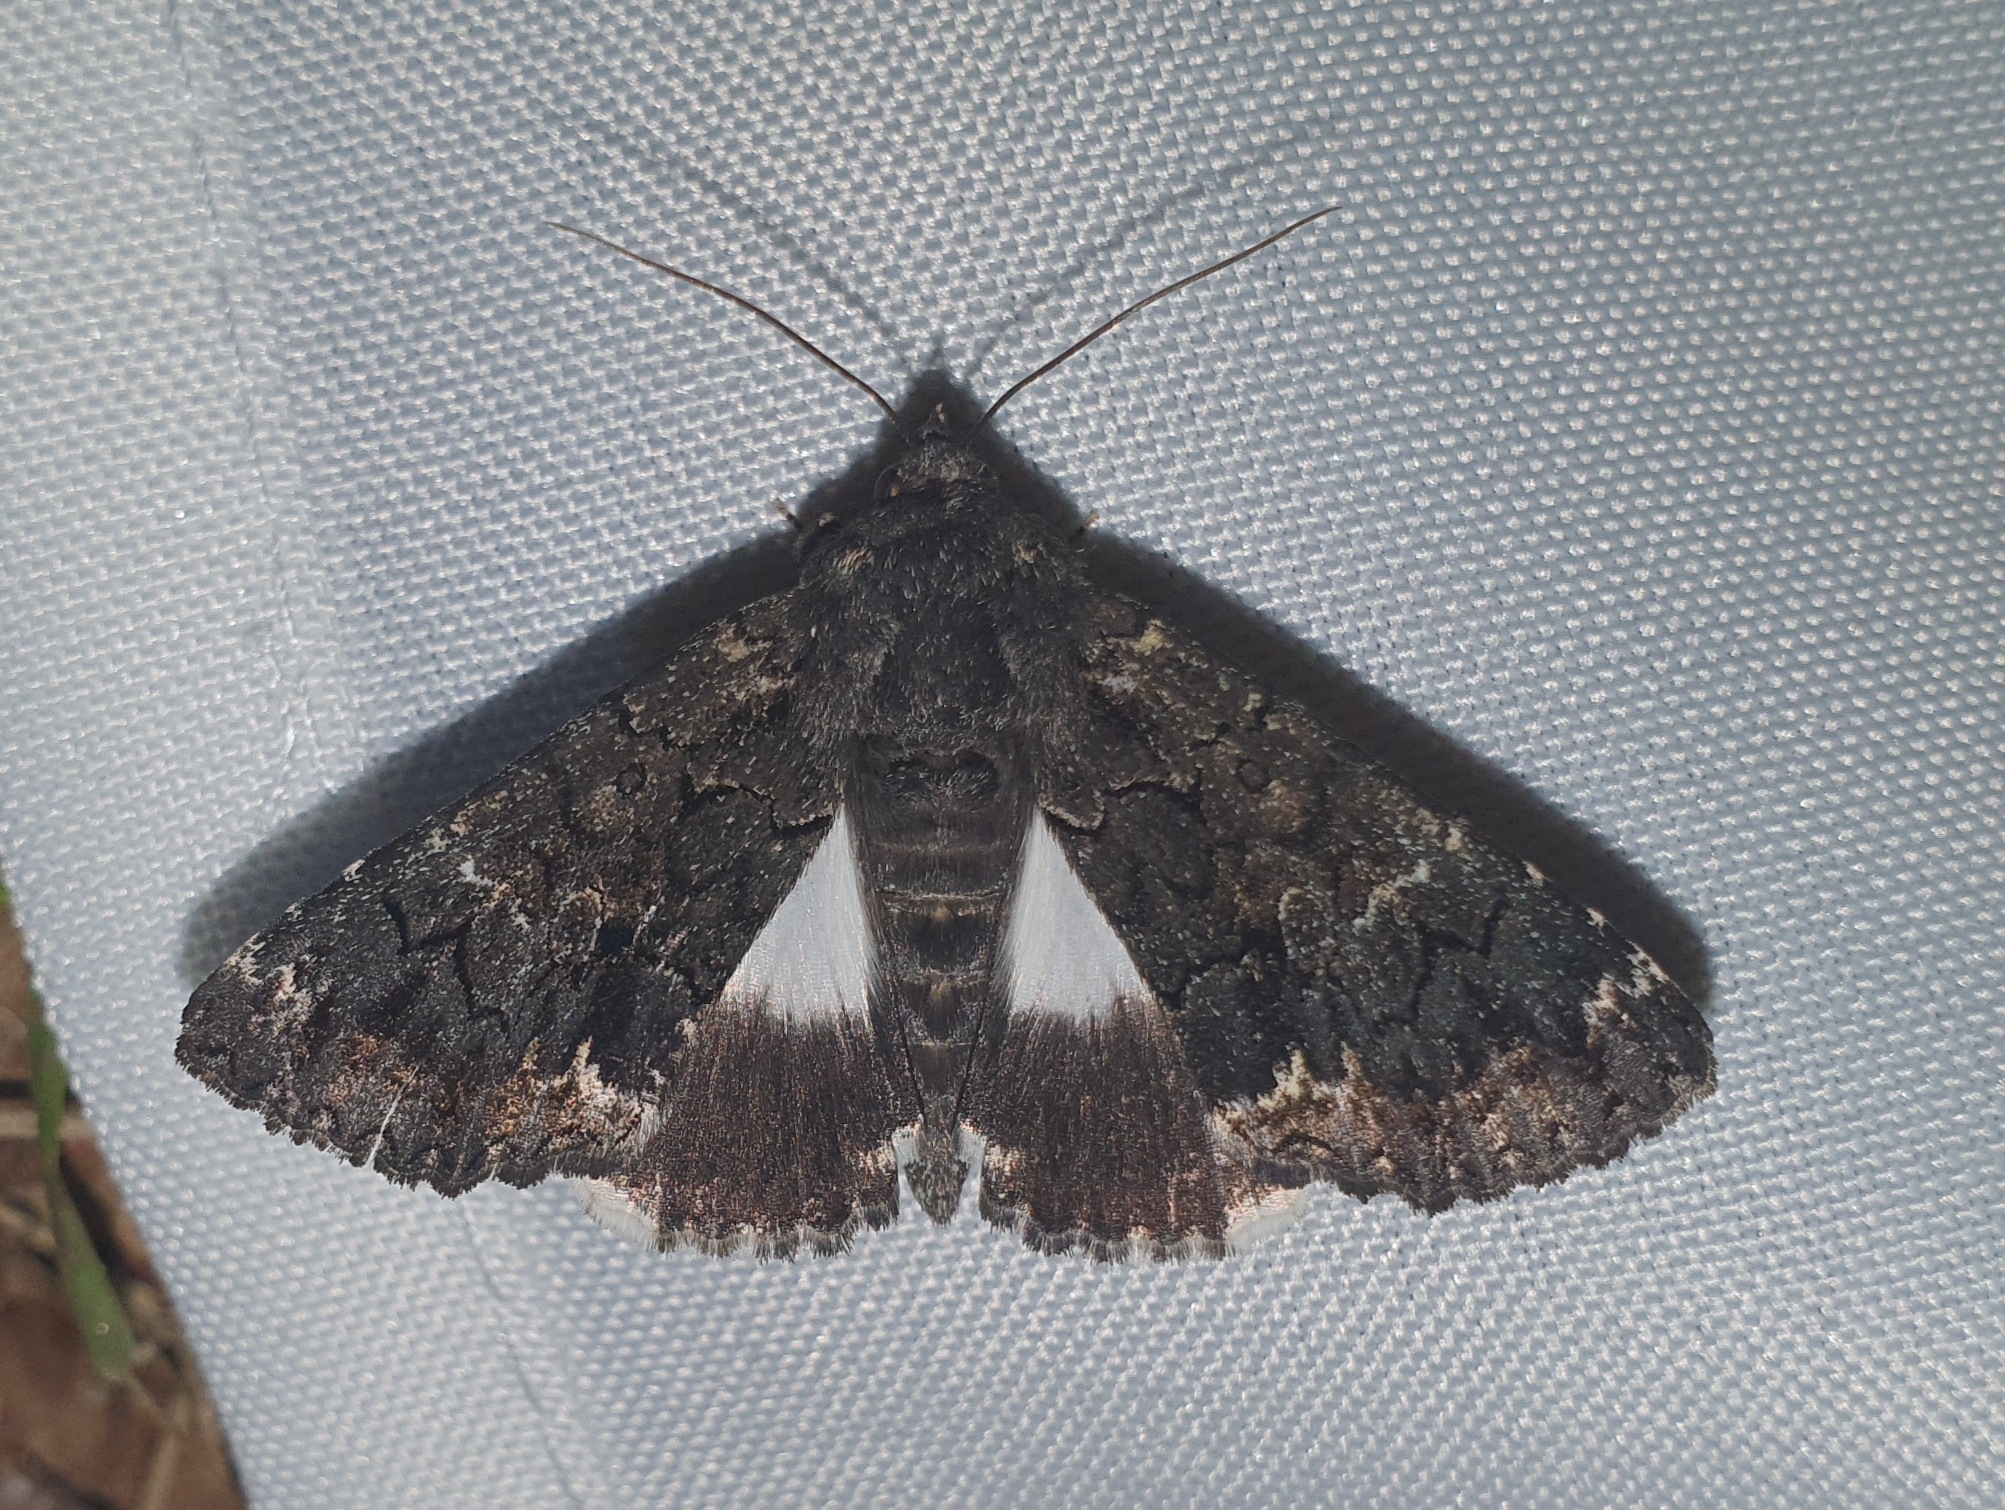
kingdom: Animalia
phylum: Arthropoda
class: Insecta
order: Lepidoptera
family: Erebidae
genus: Catephia
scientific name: Catephia alchymista
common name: Alchymist
